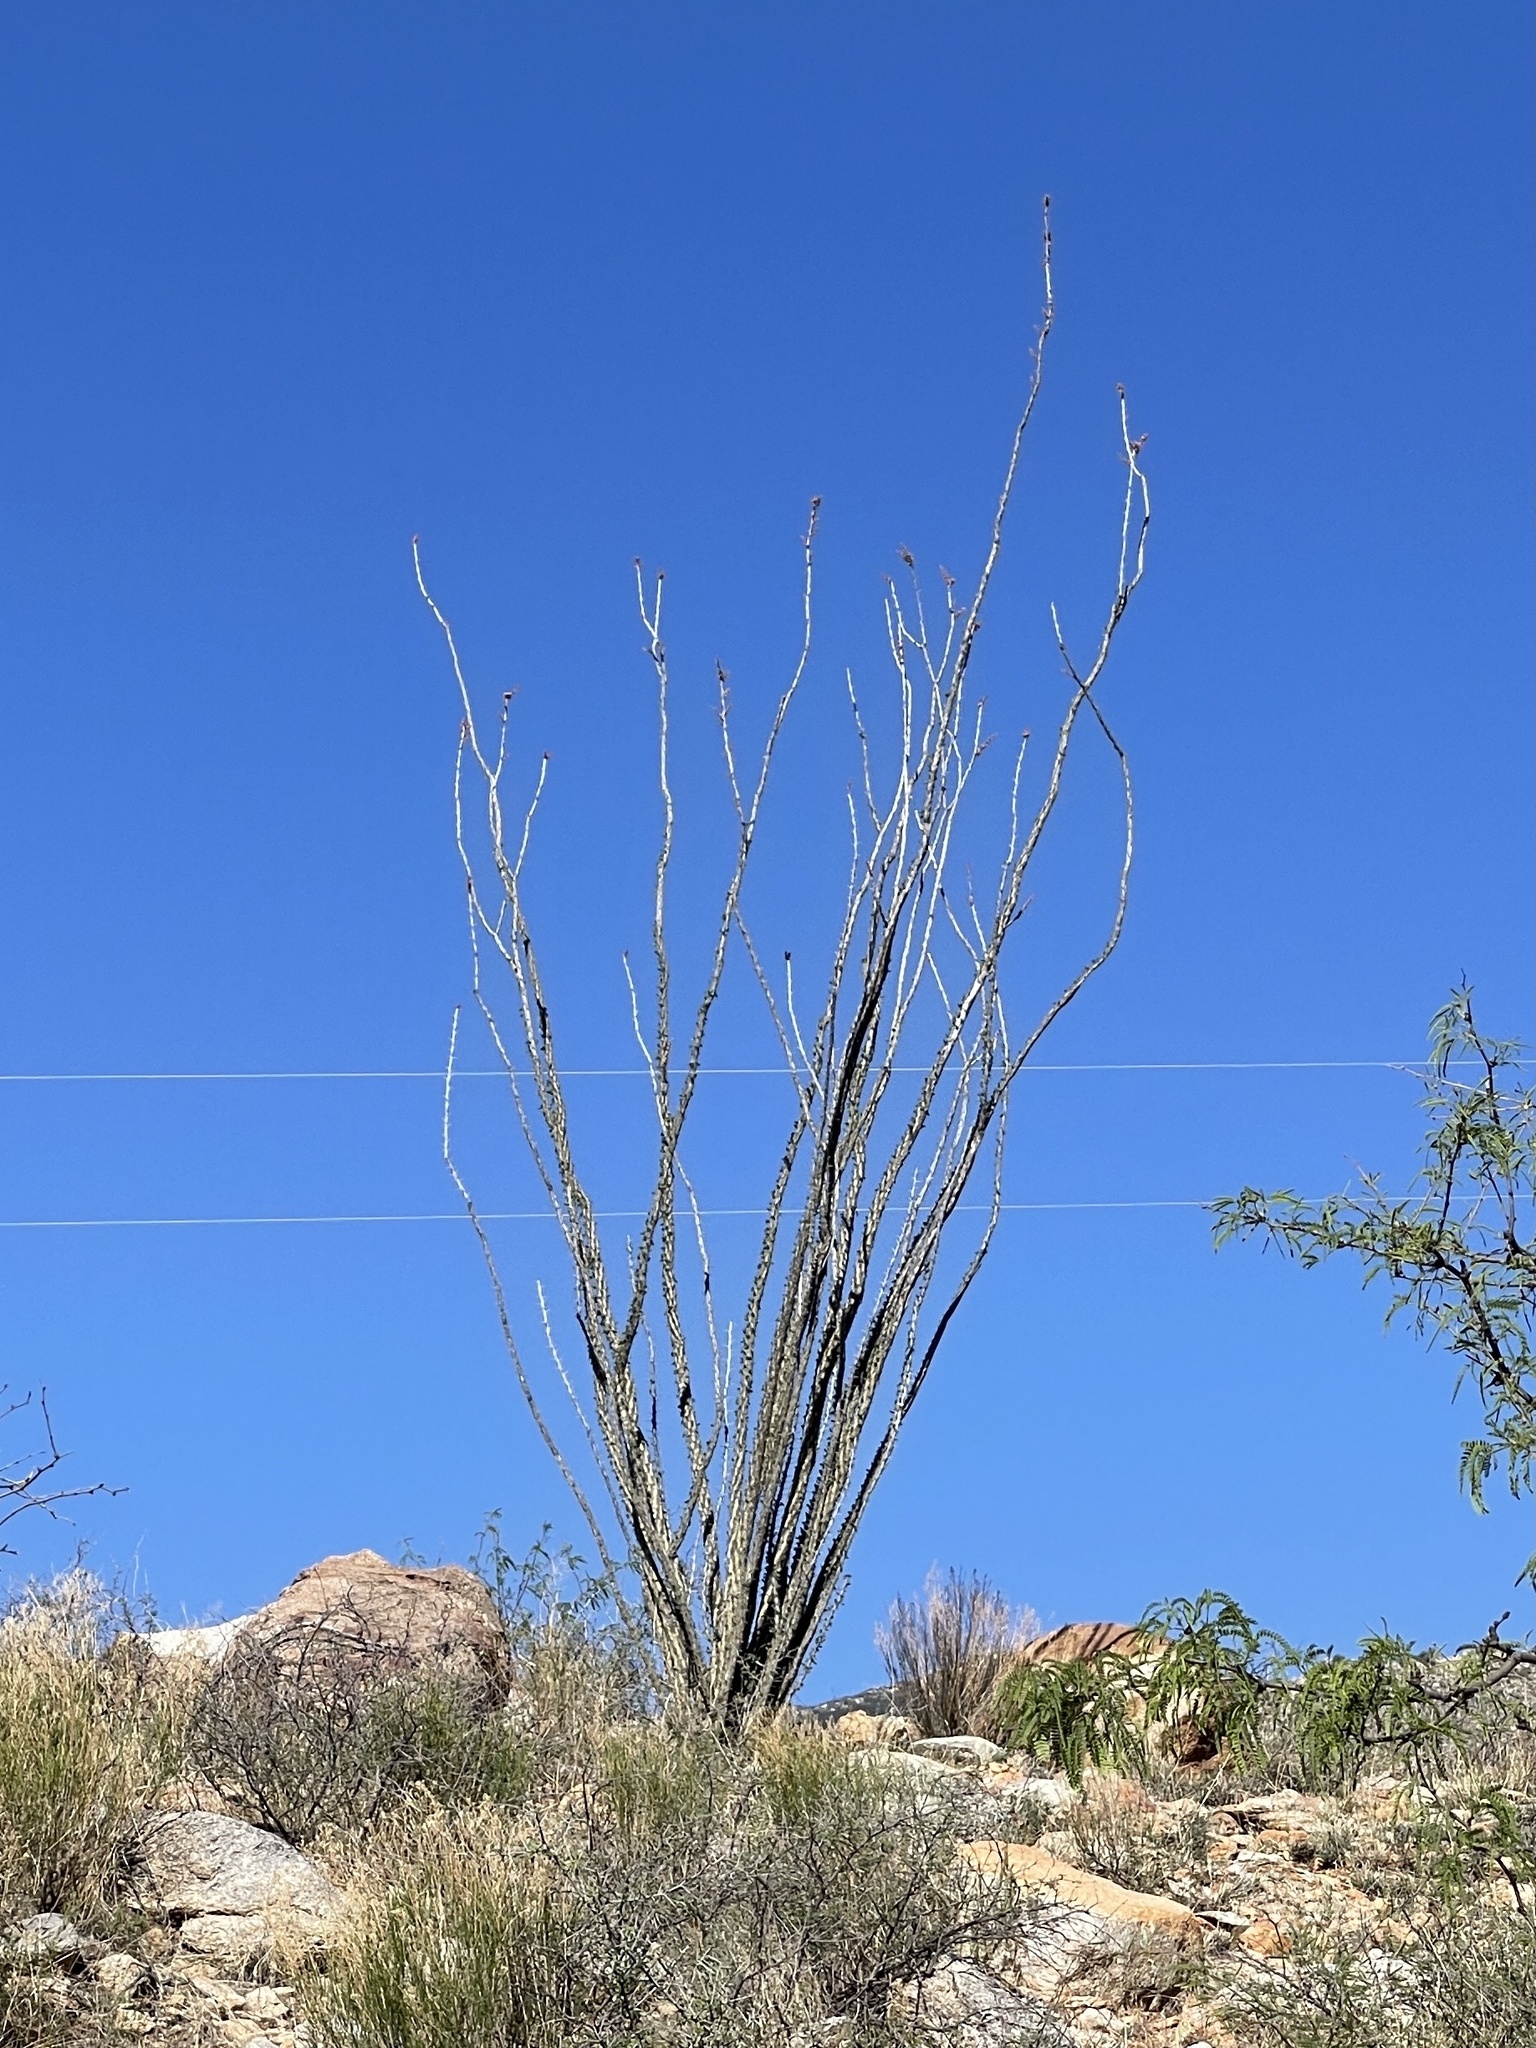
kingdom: Plantae
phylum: Tracheophyta
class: Magnoliopsida
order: Ericales
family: Fouquieriaceae
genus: Fouquieria
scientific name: Fouquieria splendens
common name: Vine-cactus
